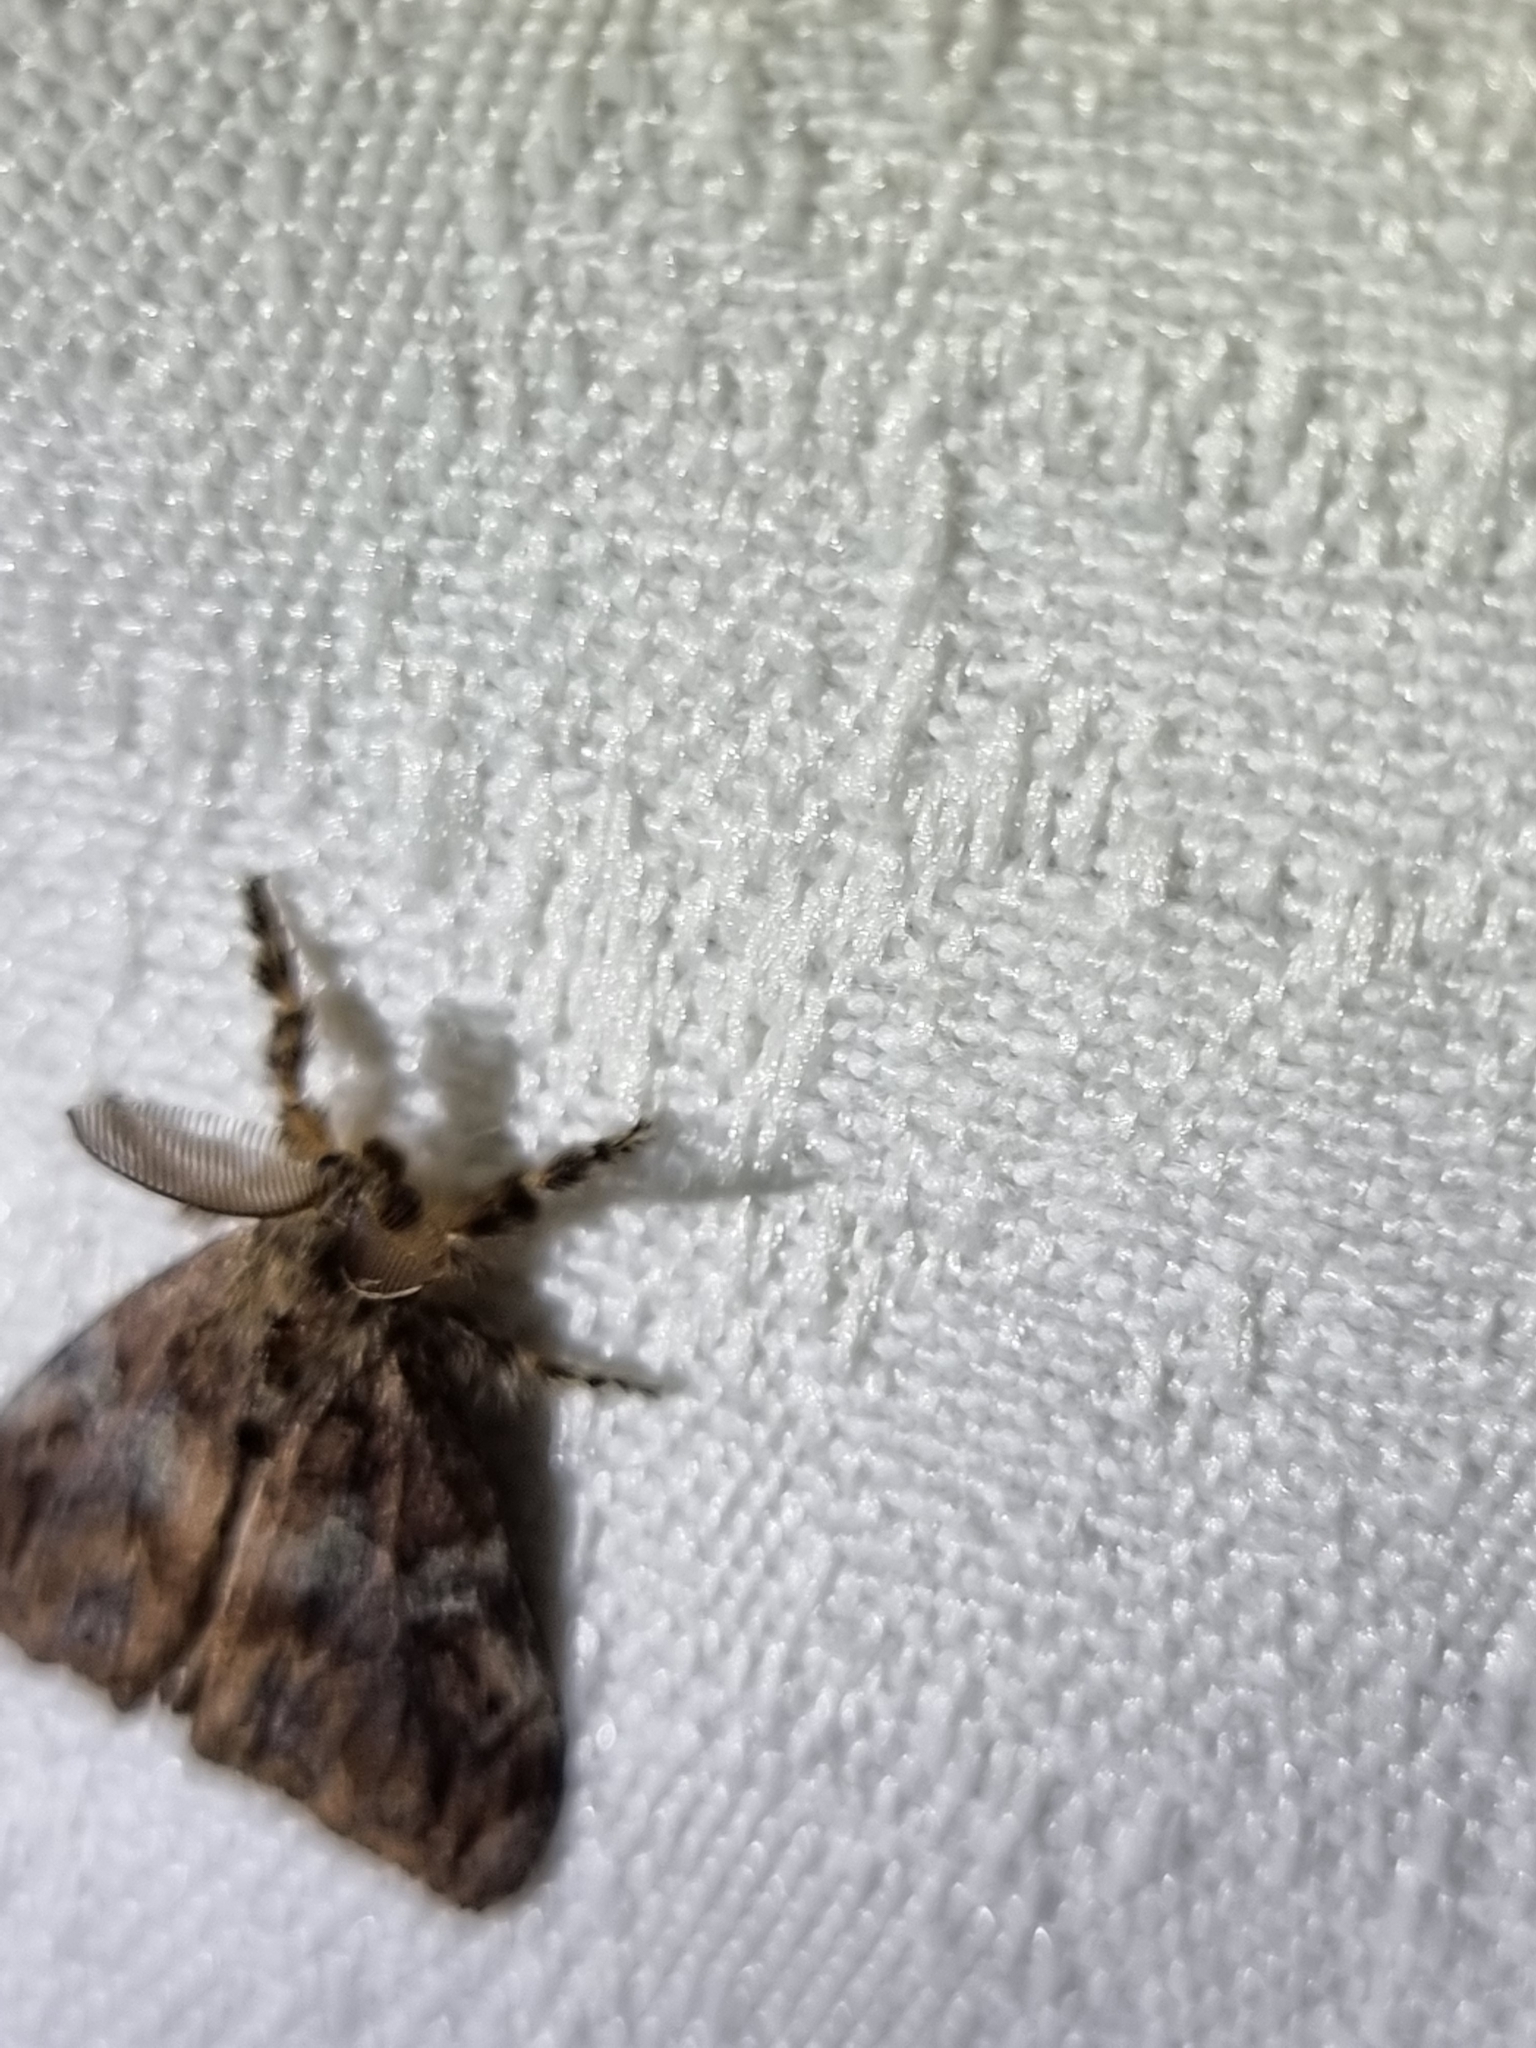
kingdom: Animalia
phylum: Arthropoda
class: Insecta
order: Lepidoptera
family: Erebidae
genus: Orgyia
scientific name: Orgyia australis
